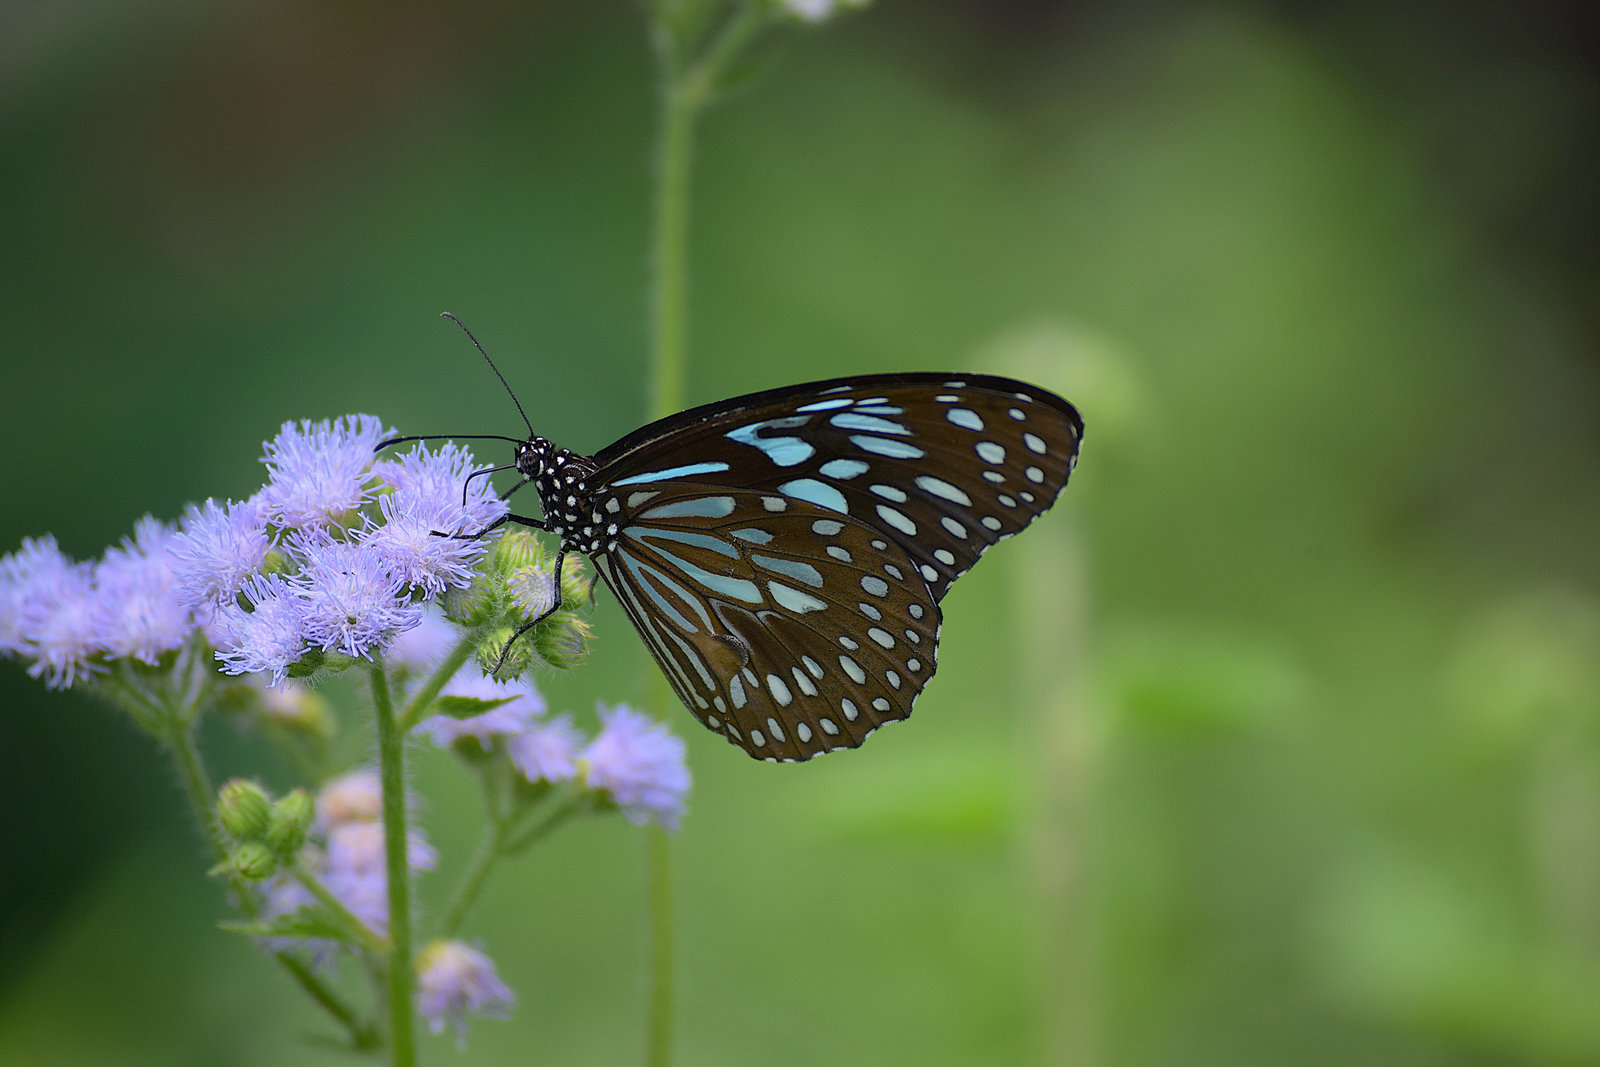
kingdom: Animalia
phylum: Arthropoda
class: Insecta
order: Lepidoptera
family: Nymphalidae
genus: Tirumala
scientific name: Tirumala septentrionis
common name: Dark blue tiger butterfly
